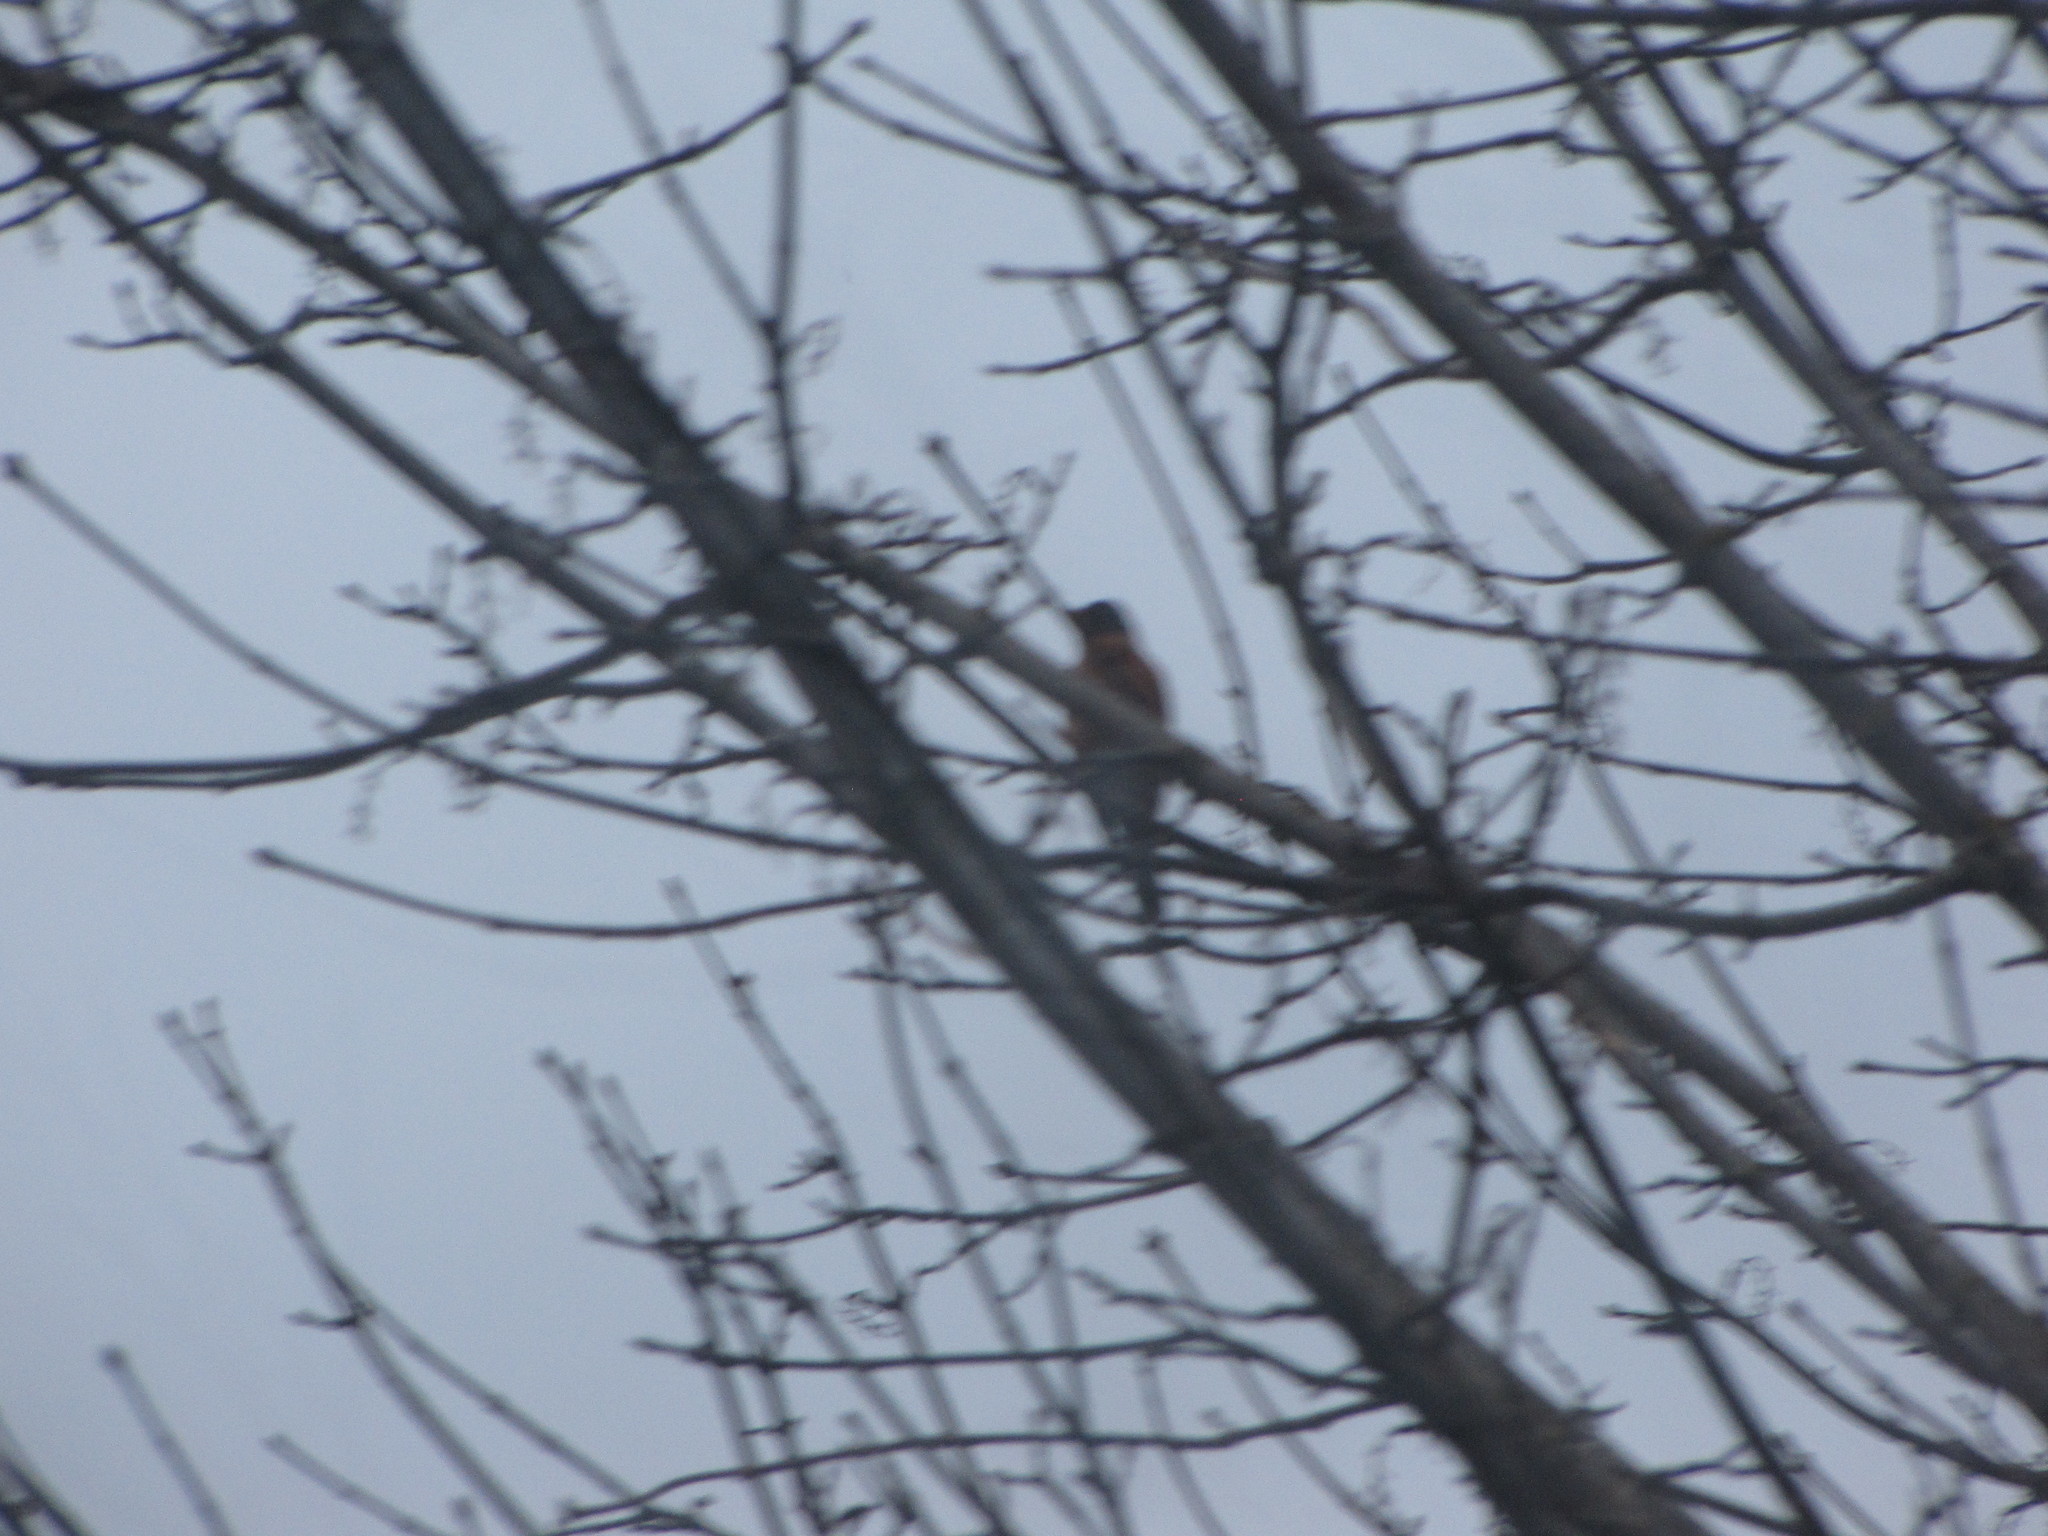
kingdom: Animalia
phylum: Chordata
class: Aves
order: Passeriformes
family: Turdidae
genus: Turdus
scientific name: Turdus migratorius
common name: American robin
